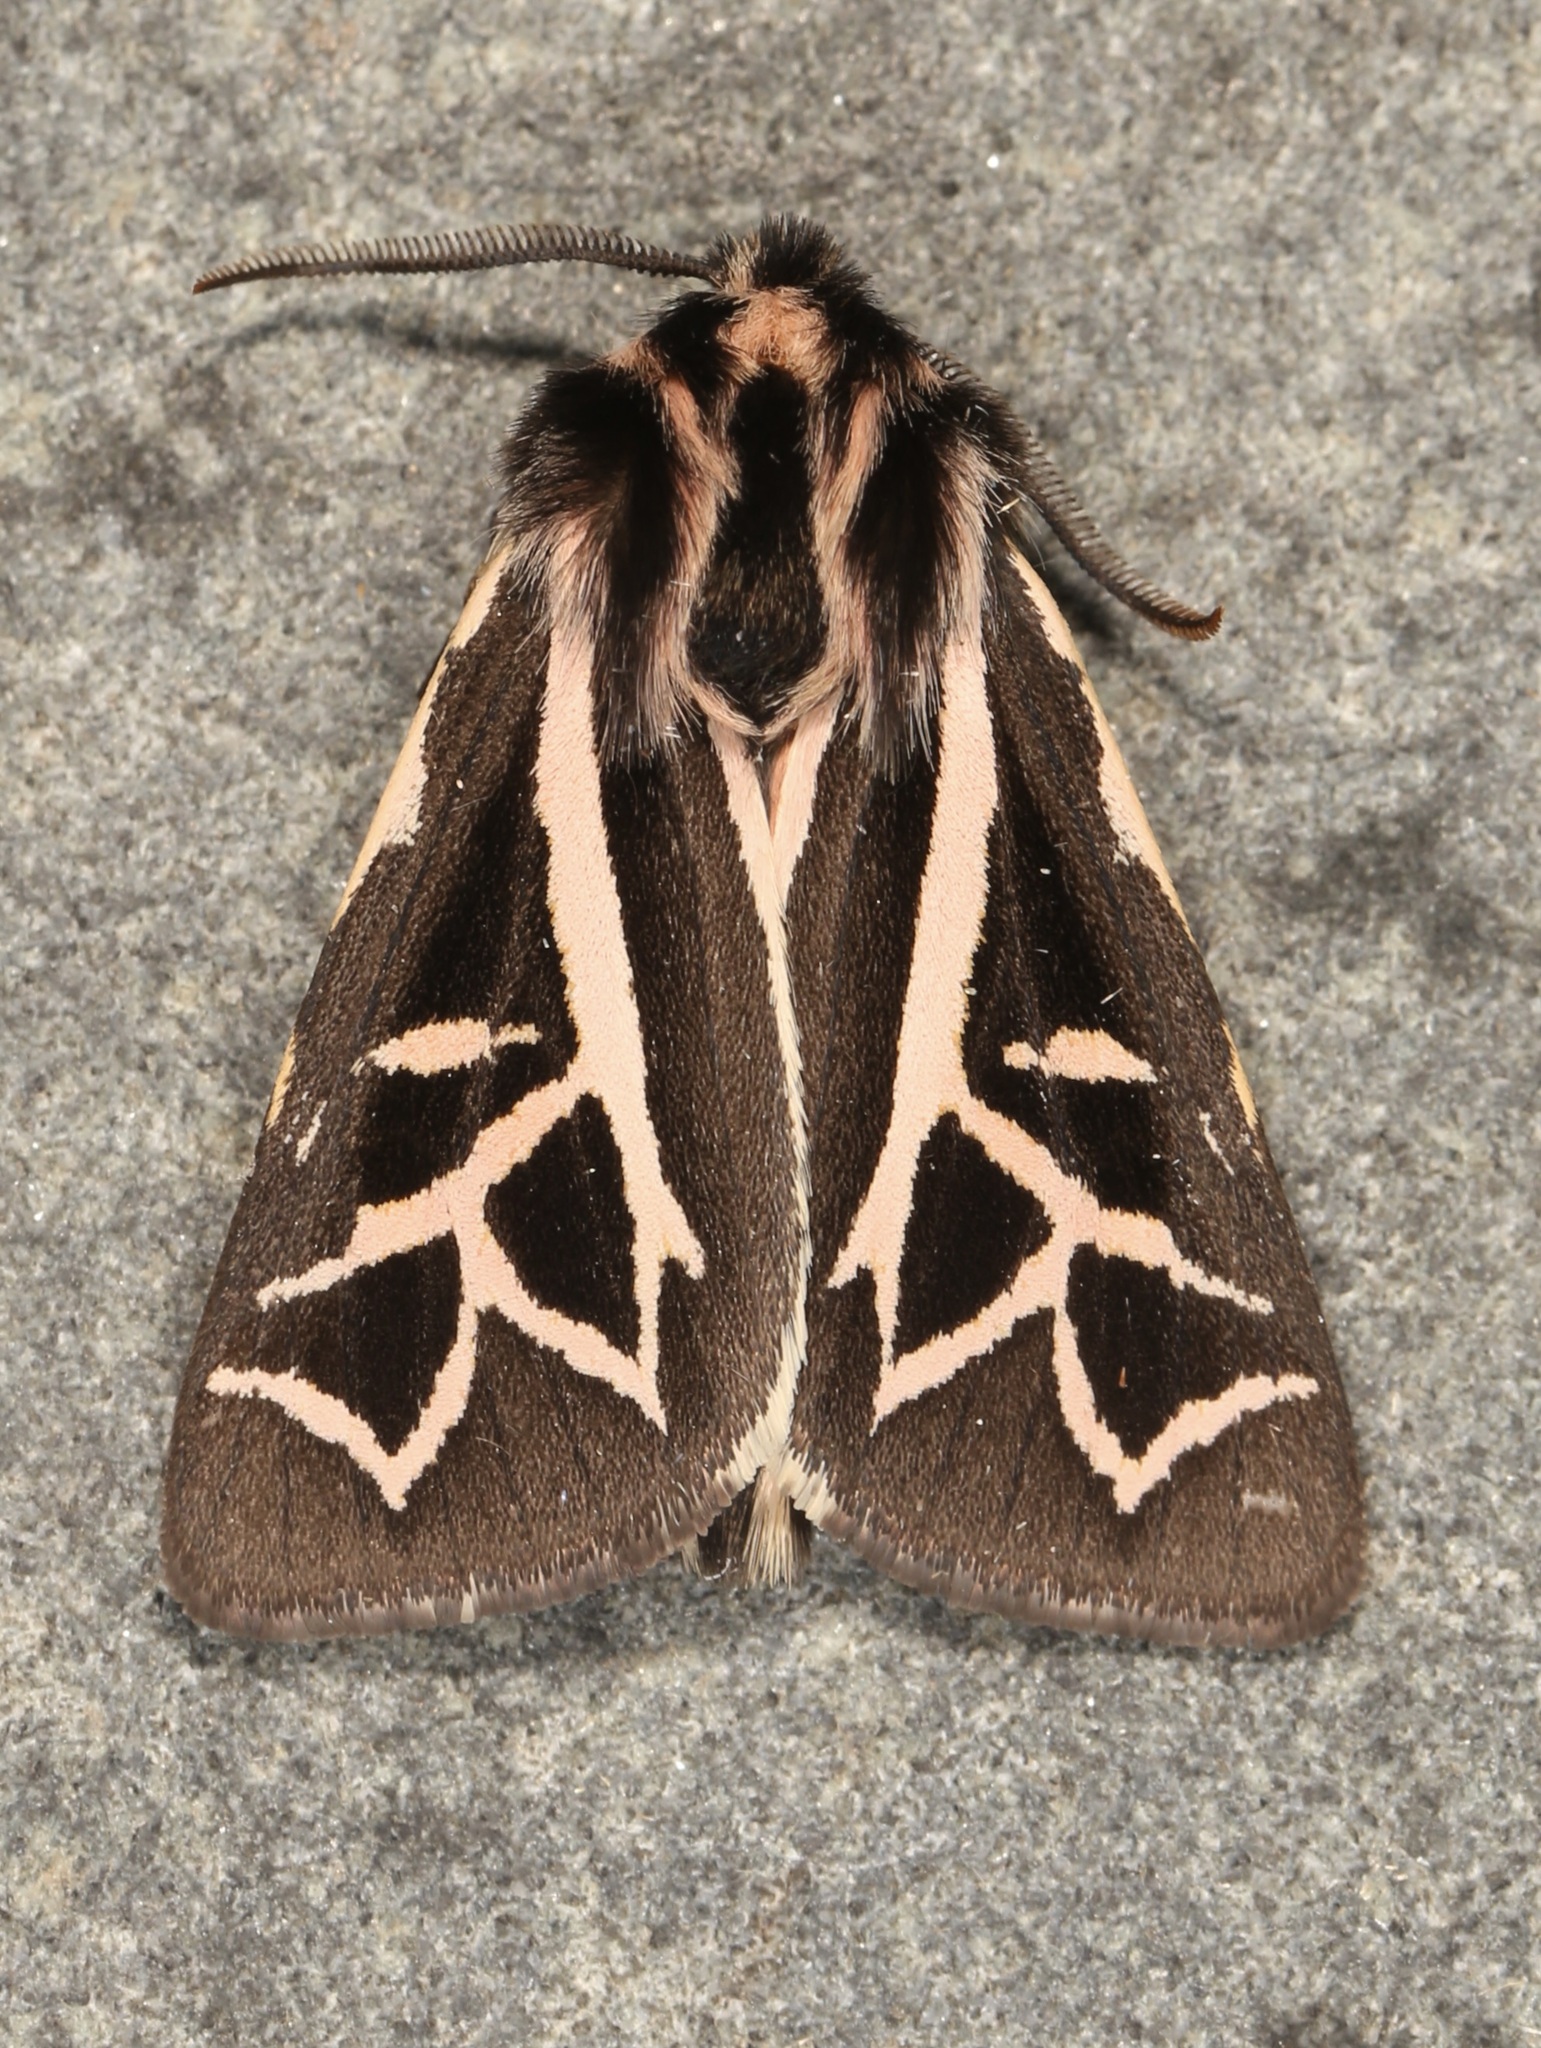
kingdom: Animalia
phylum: Arthropoda
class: Insecta
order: Lepidoptera
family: Erebidae
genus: Apantesis
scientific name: Apantesis
